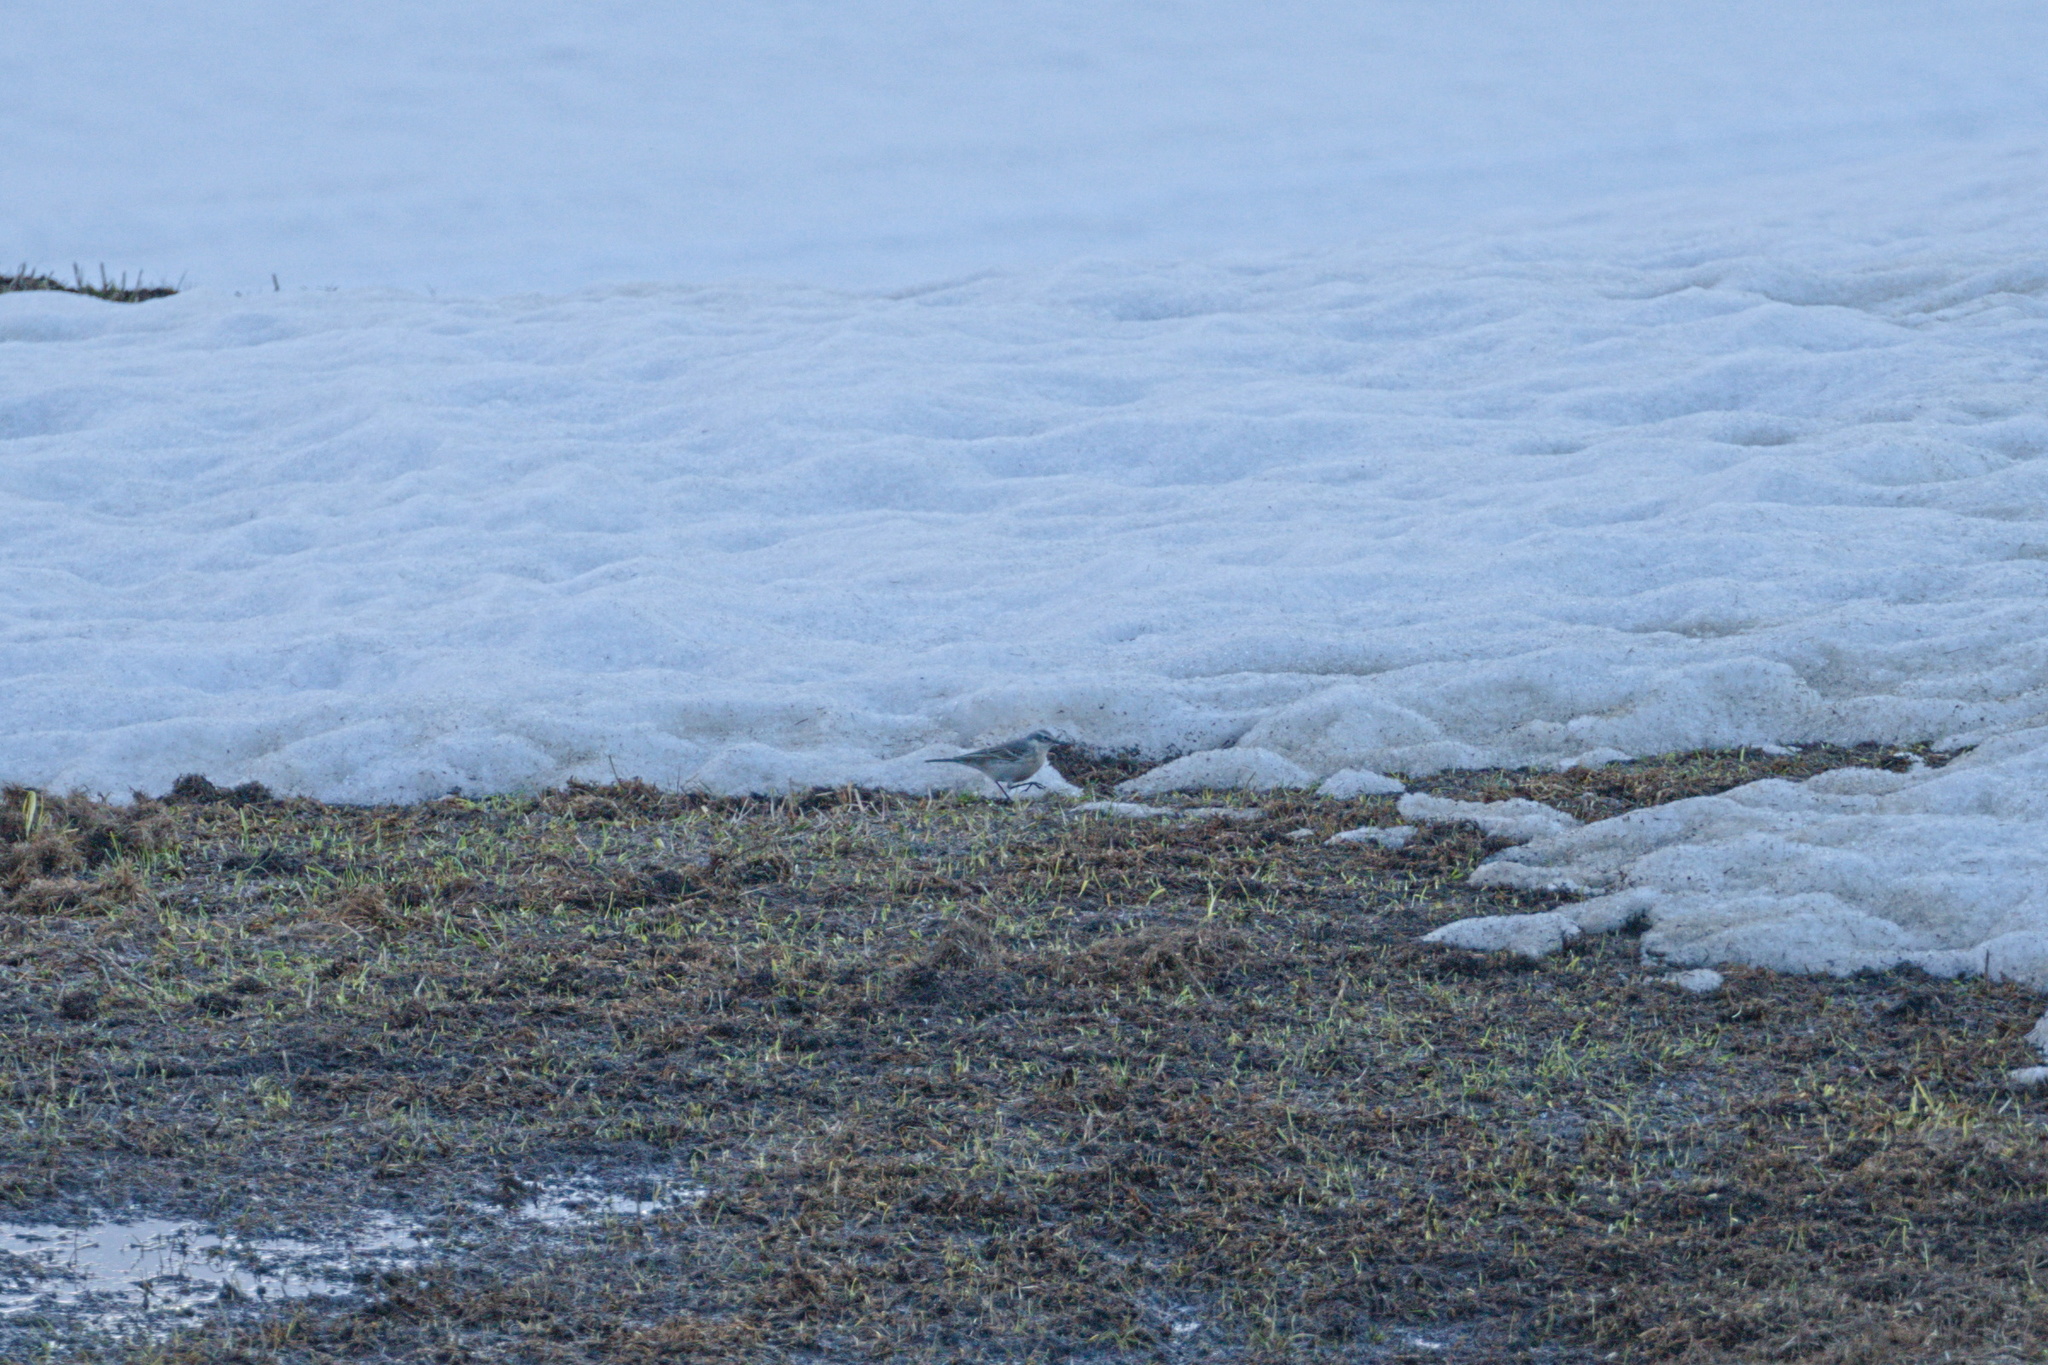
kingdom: Animalia
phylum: Chordata
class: Aves
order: Passeriformes
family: Motacillidae
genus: Anthus
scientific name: Anthus spinoletta
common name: Water pipit
